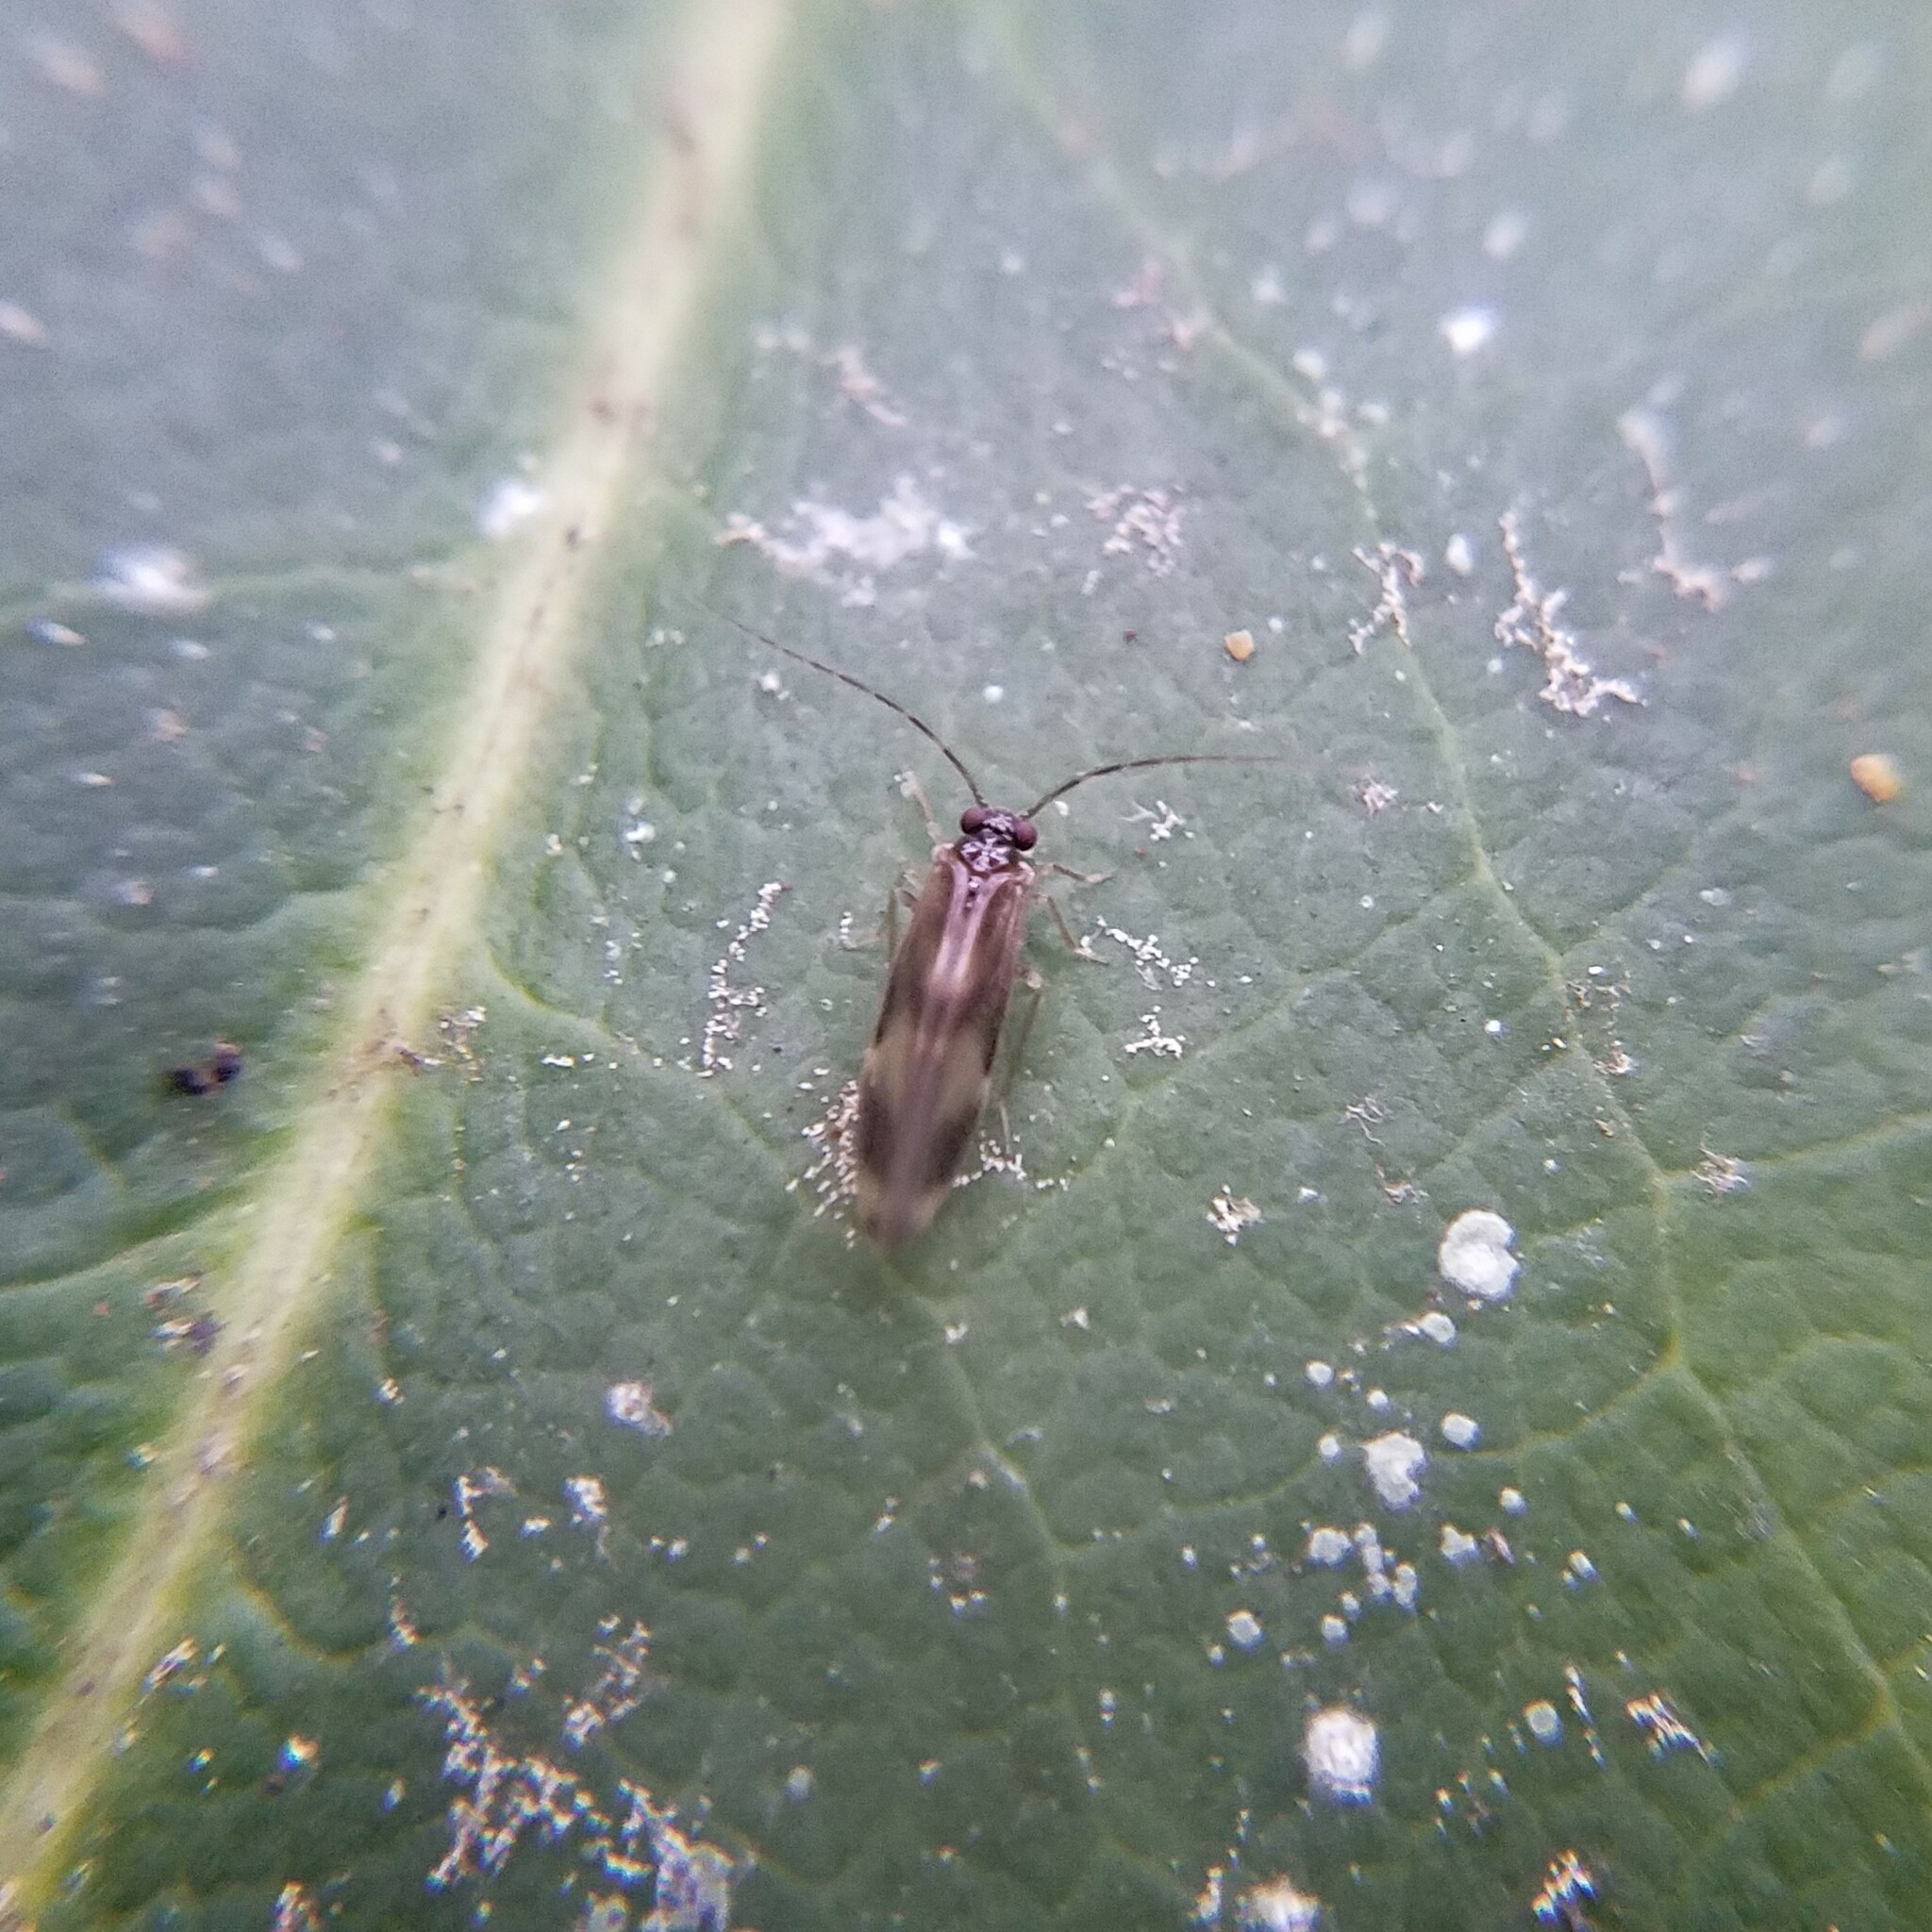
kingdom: Animalia
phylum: Arthropoda
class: Insecta
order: Psocodea
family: Amphipsocidae
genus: Polypsocus
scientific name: Polypsocus corruptus
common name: Corrupt barklouse
